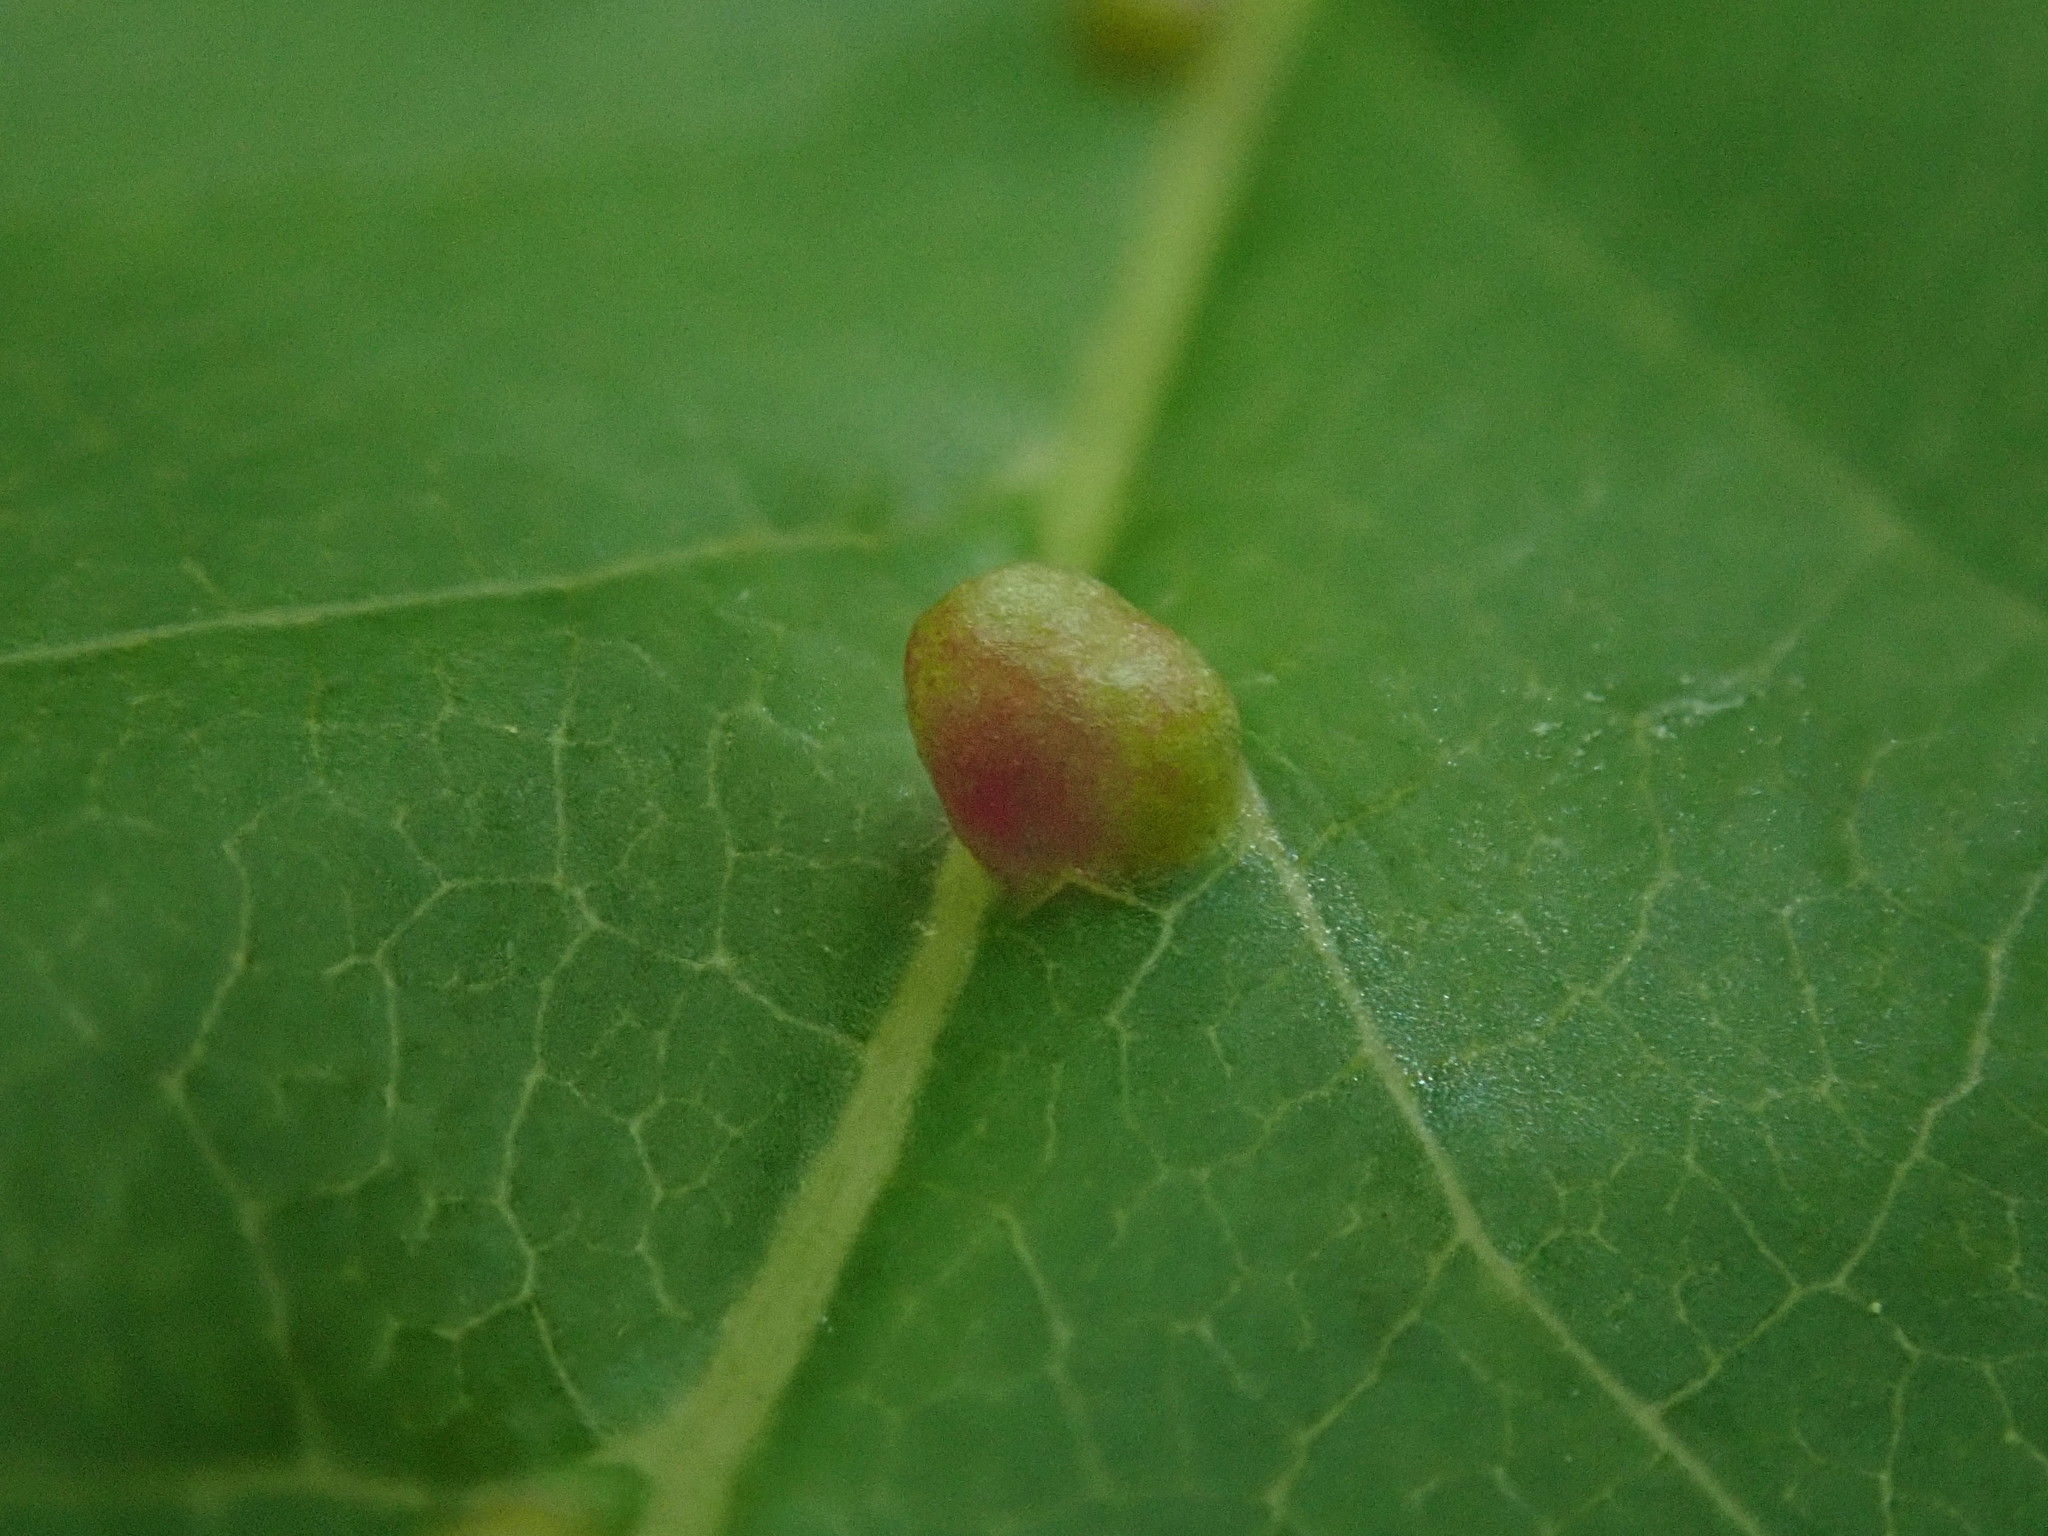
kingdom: Animalia
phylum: Arthropoda
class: Arachnida
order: Trombidiformes
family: Eriophyidae
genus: Aceria
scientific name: Aceria
